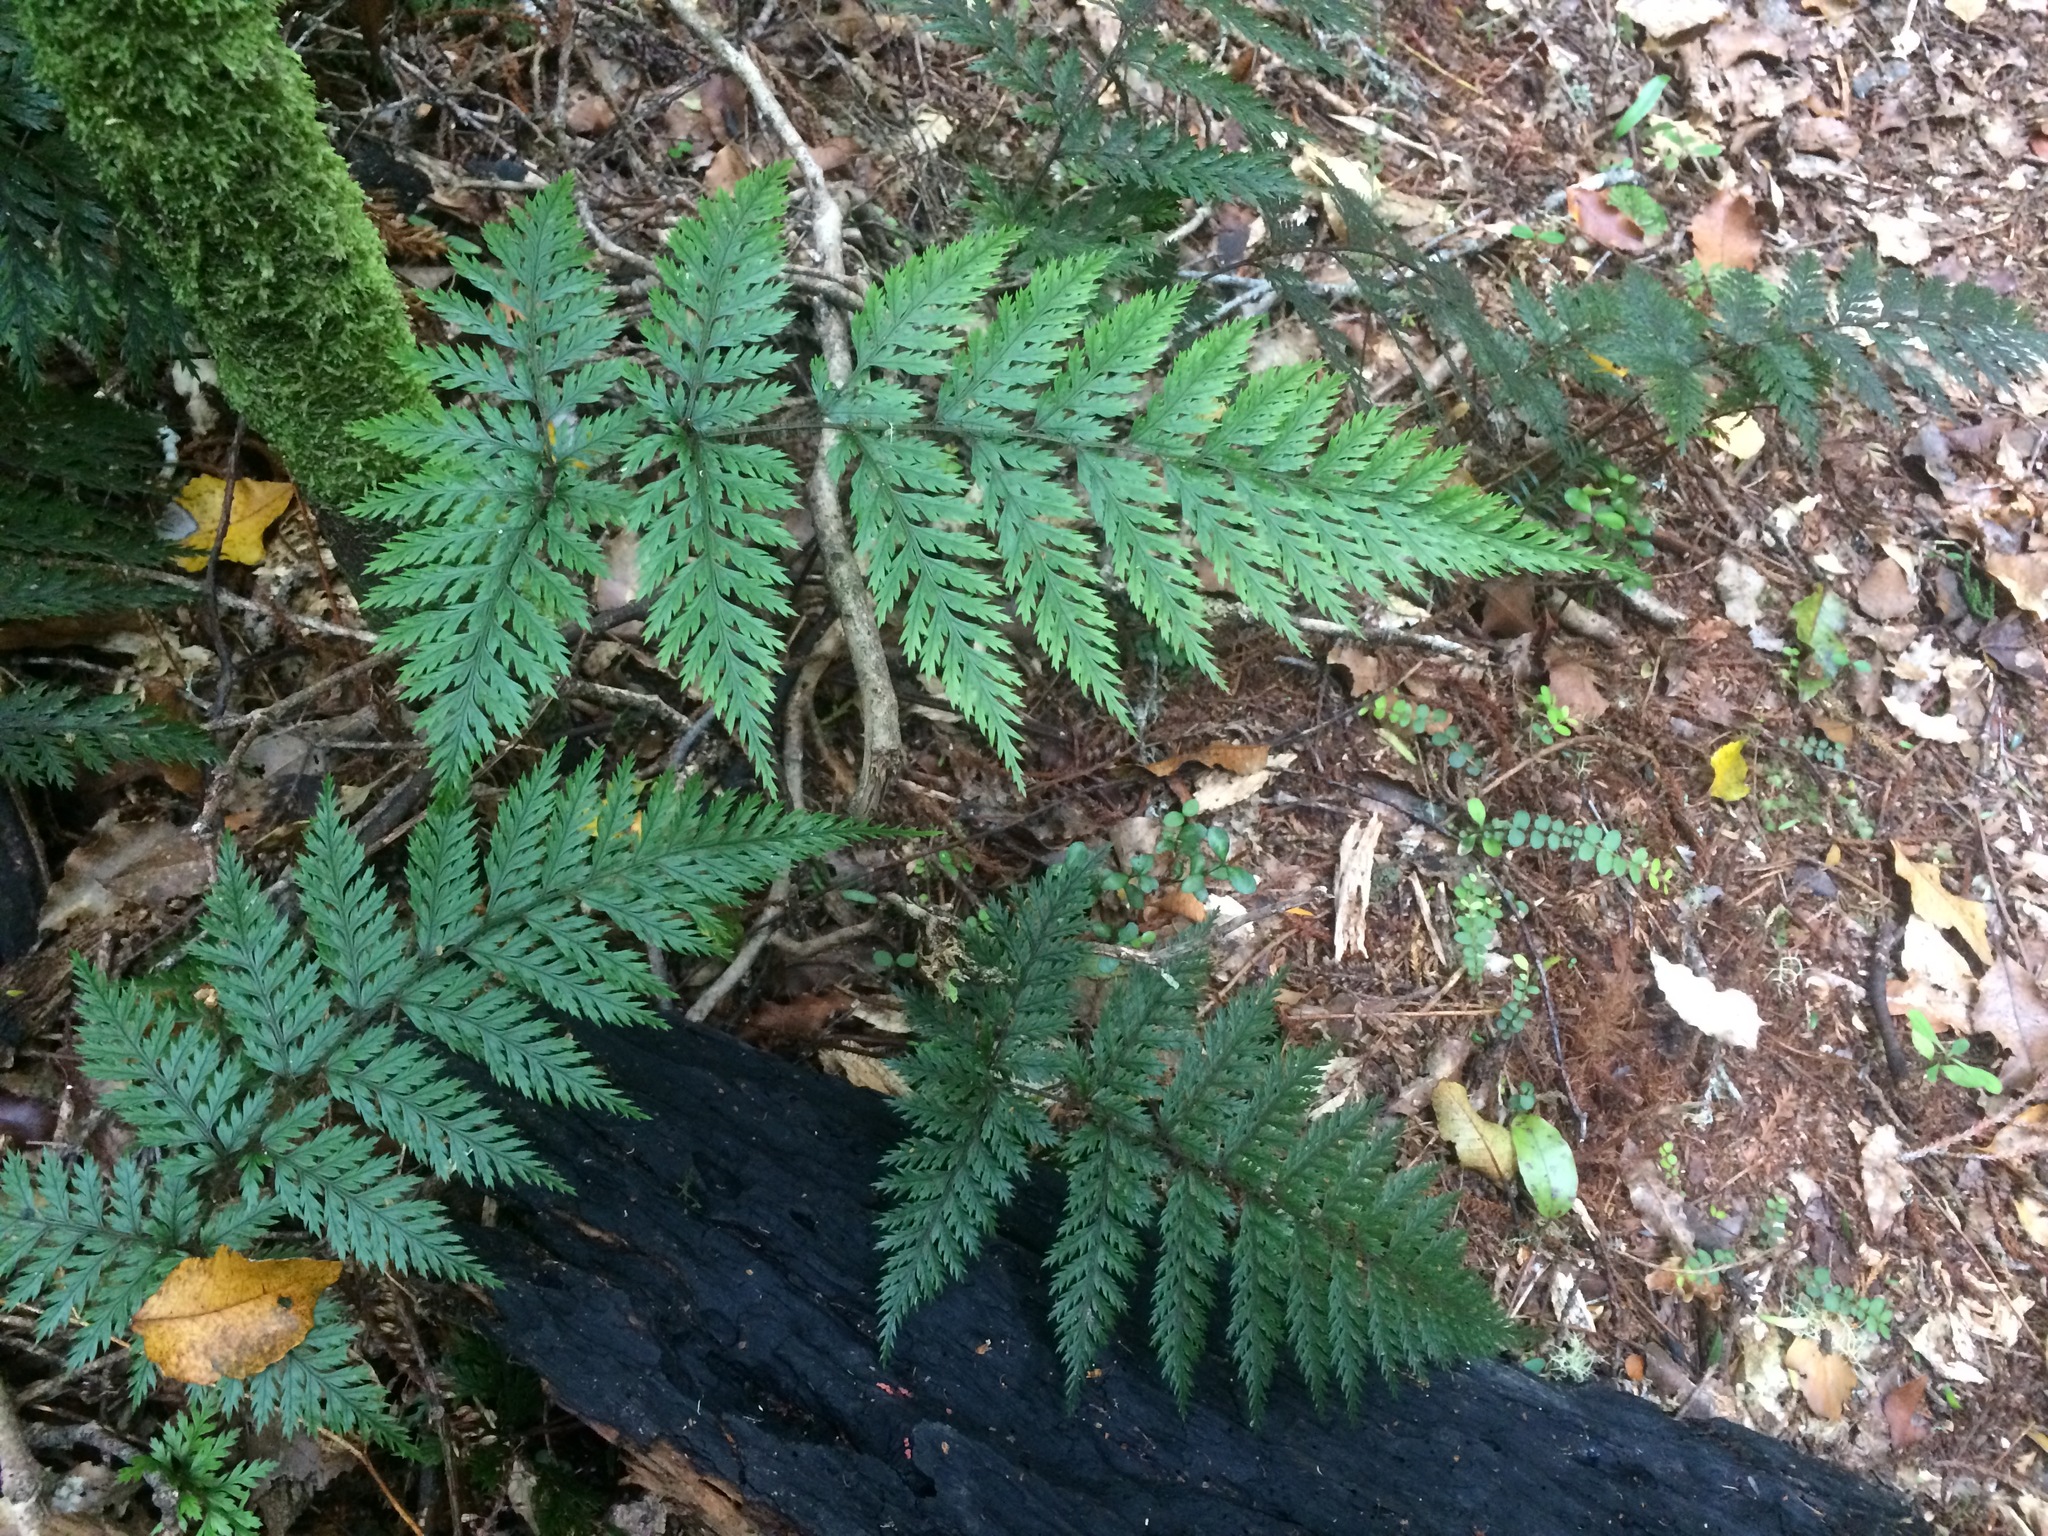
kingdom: Plantae
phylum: Tracheophyta
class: Polypodiopsida
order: Polypodiales
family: Dryopteridaceae
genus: Lastreopsis
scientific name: Lastreopsis hispida
